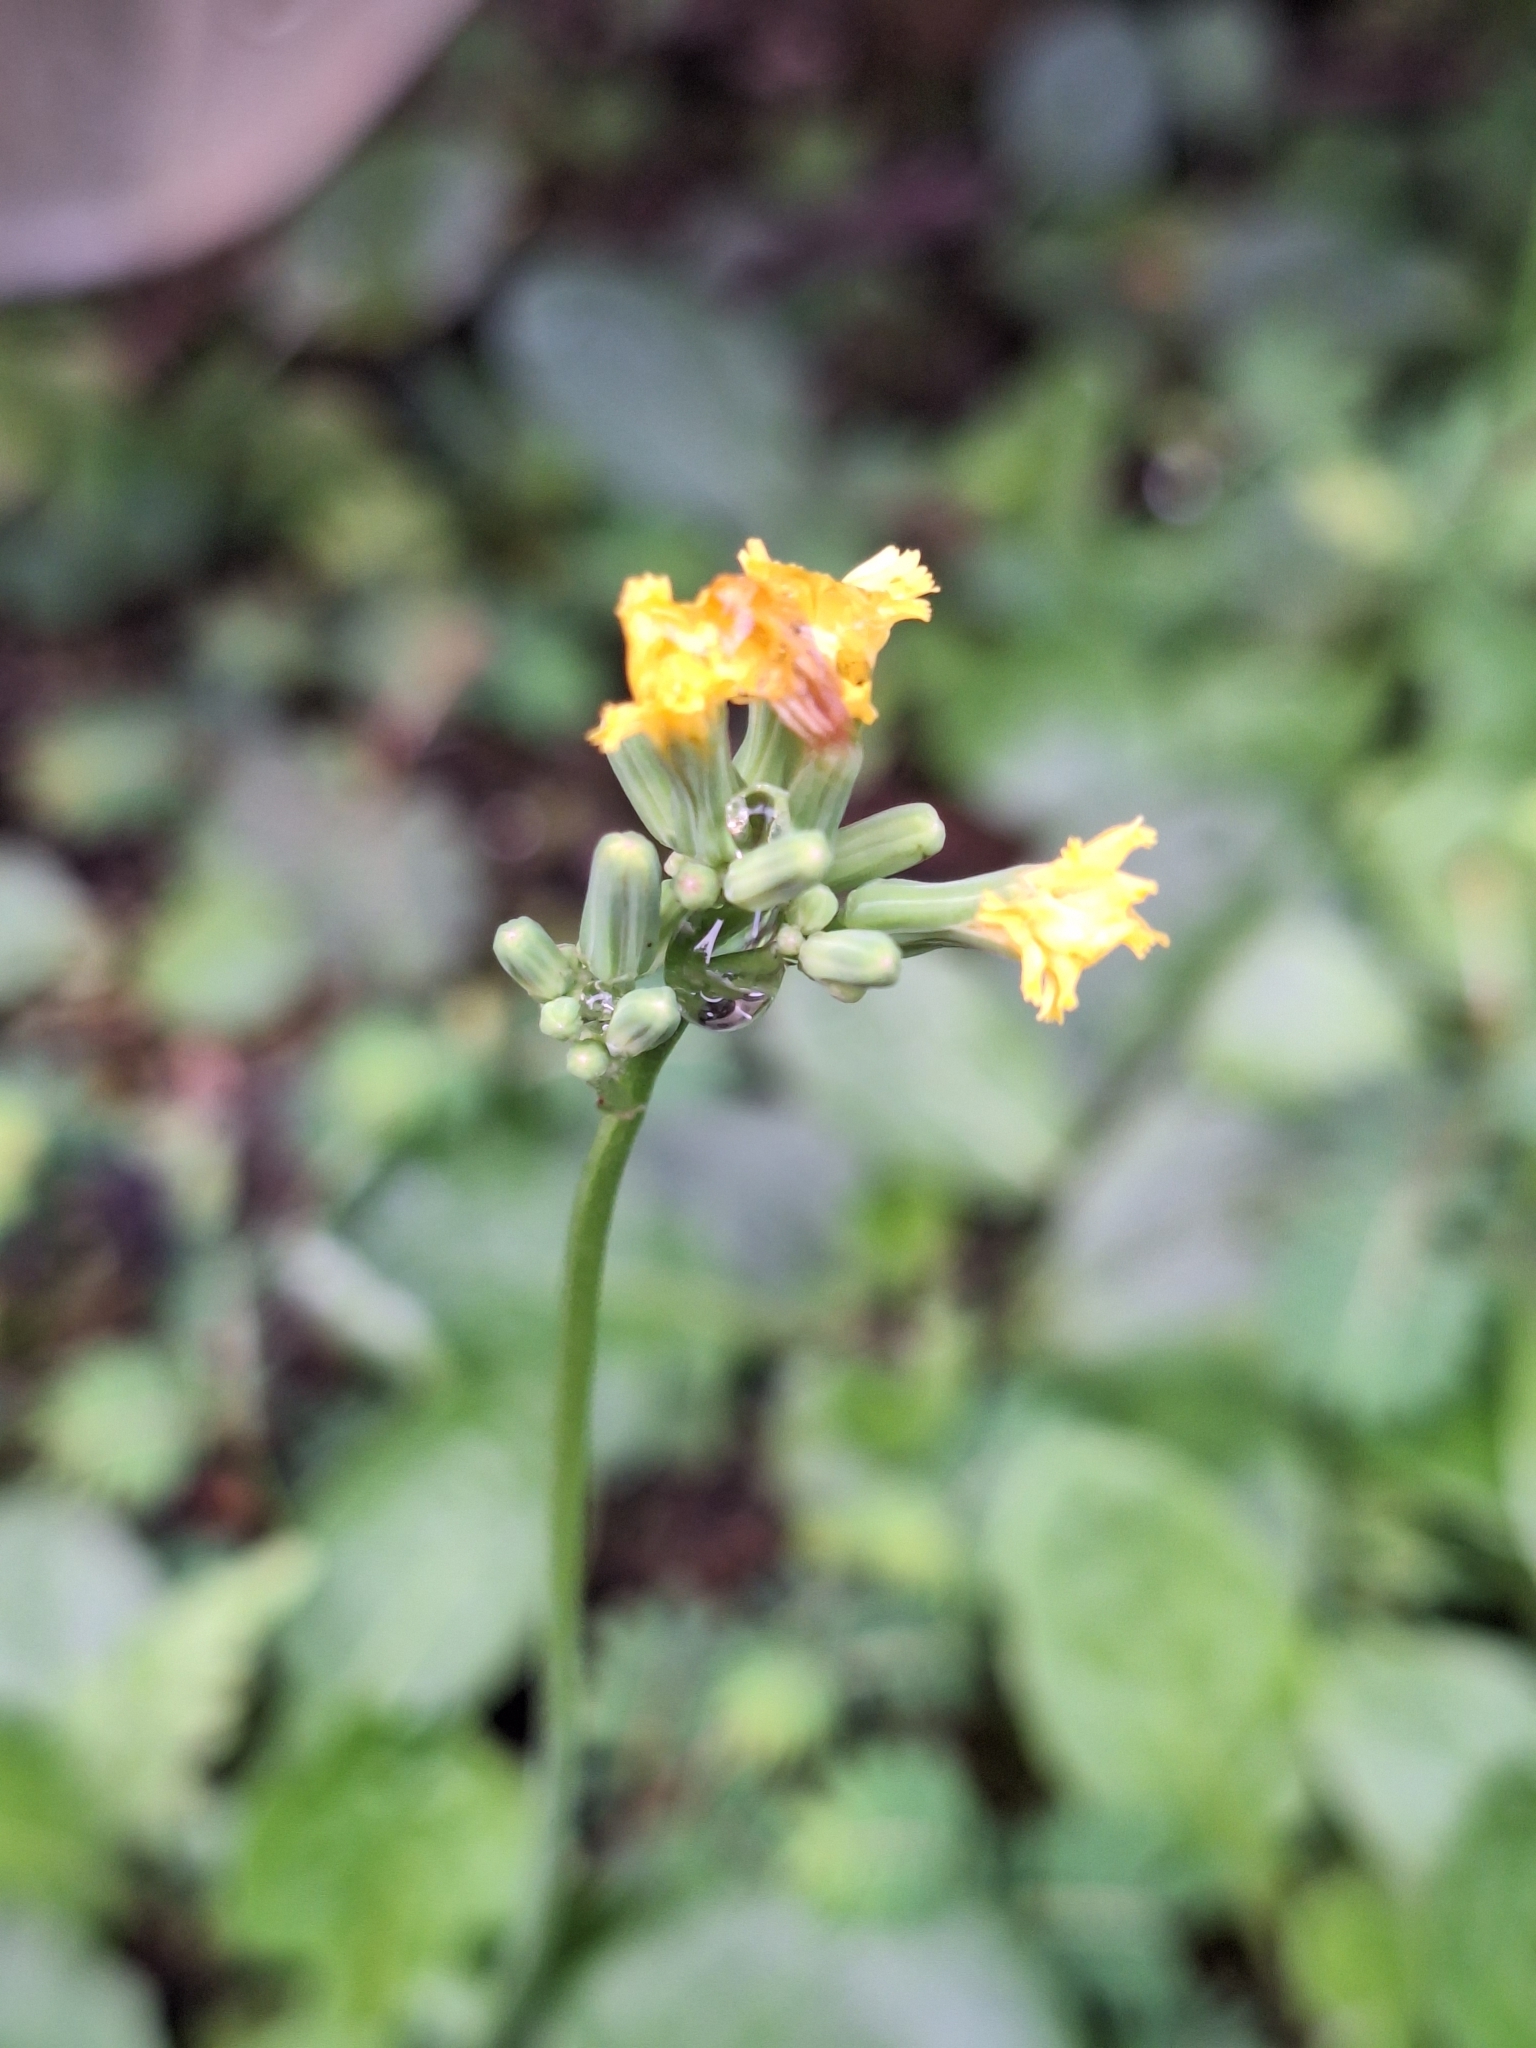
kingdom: Plantae
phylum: Tracheophyta
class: Magnoliopsida
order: Asterales
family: Asteraceae
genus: Youngia
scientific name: Youngia japonica
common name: Oriental false hawksbeard
